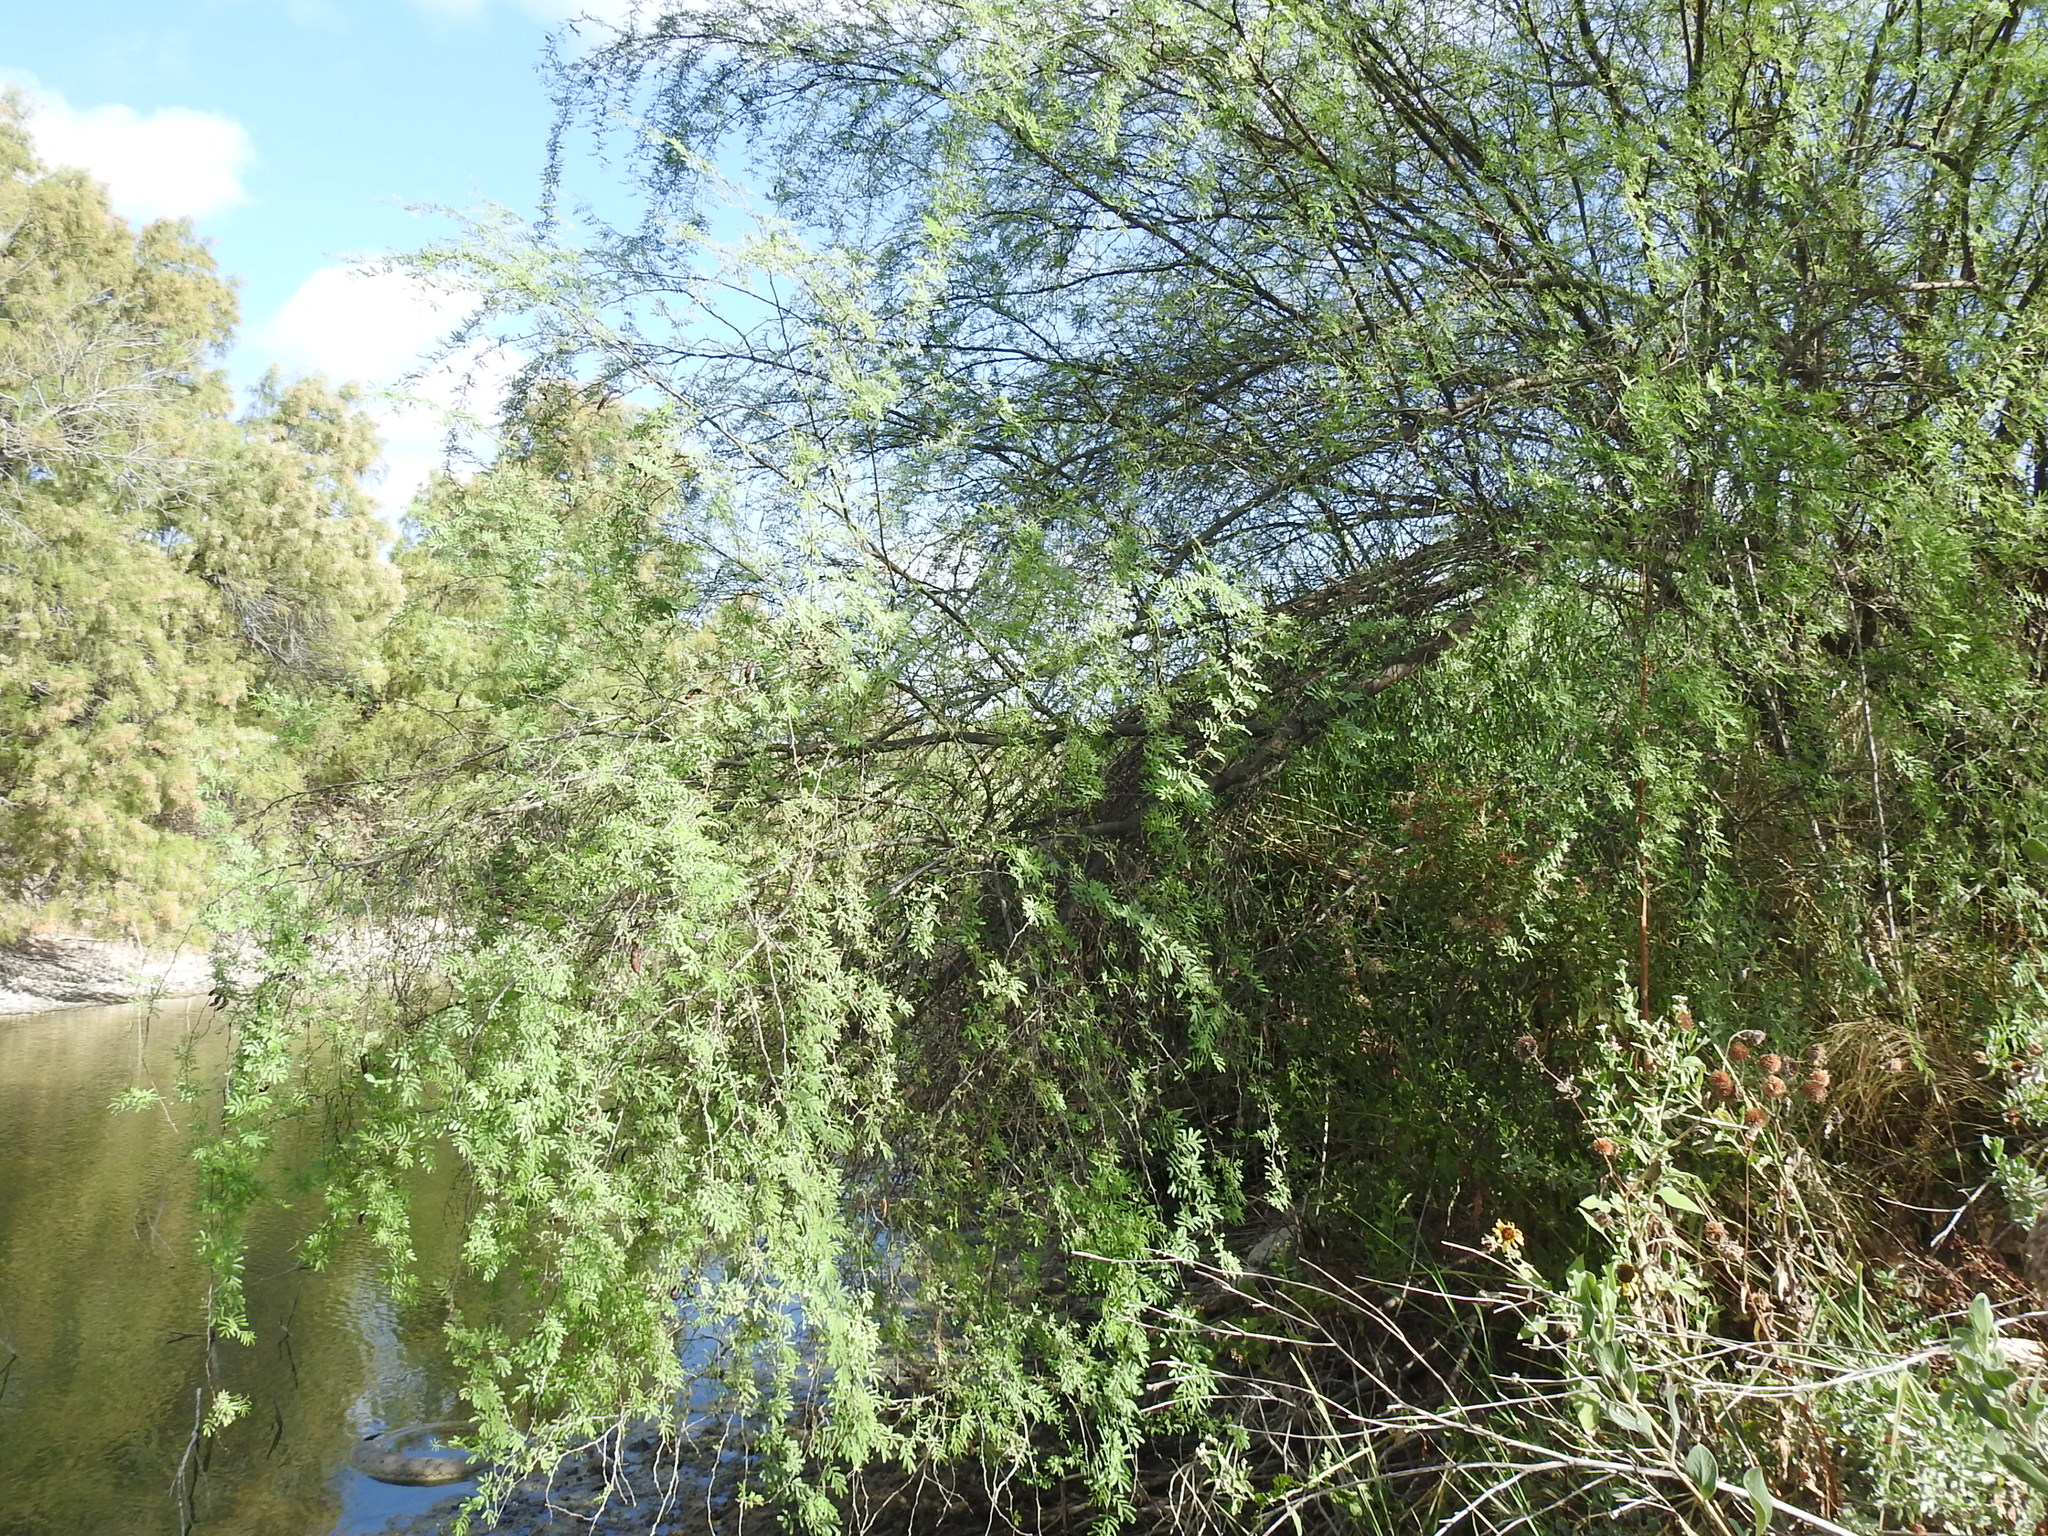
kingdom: Plantae
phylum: Tracheophyta
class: Magnoliopsida
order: Fabales
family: Fabaceae
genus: Vachellia
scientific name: Vachellia farnesiana
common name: Sweet acacia
